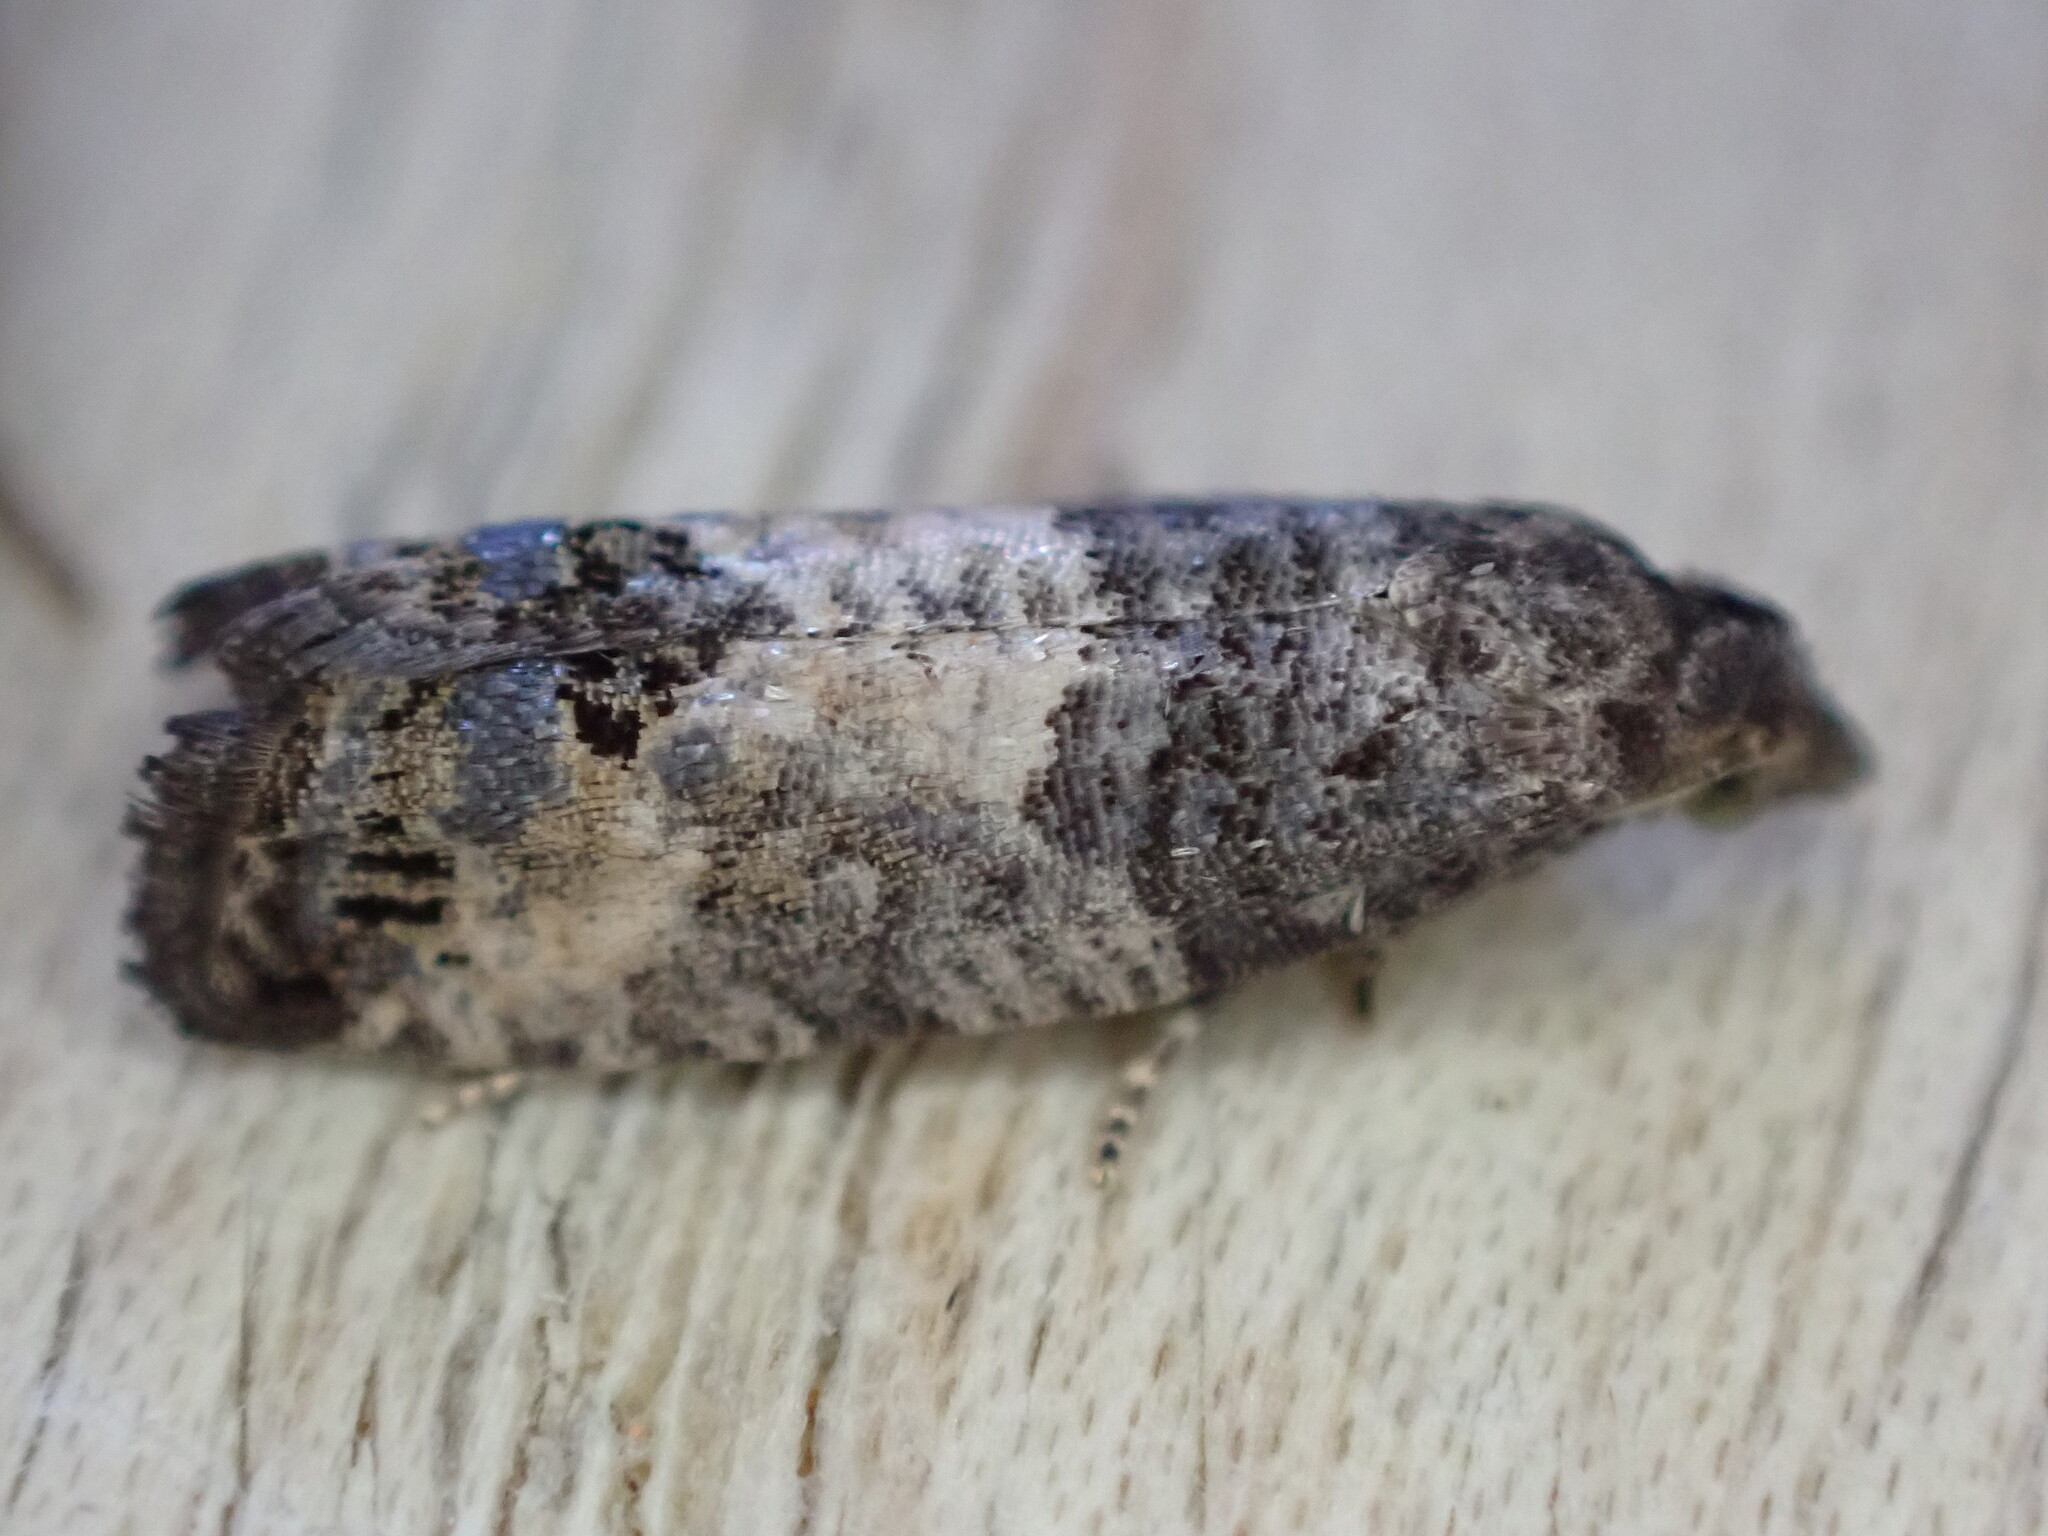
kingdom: Animalia
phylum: Arthropoda
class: Insecta
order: Lepidoptera
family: Tortricidae
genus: Spilonota
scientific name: Spilonota ocellana
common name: Bud moth
